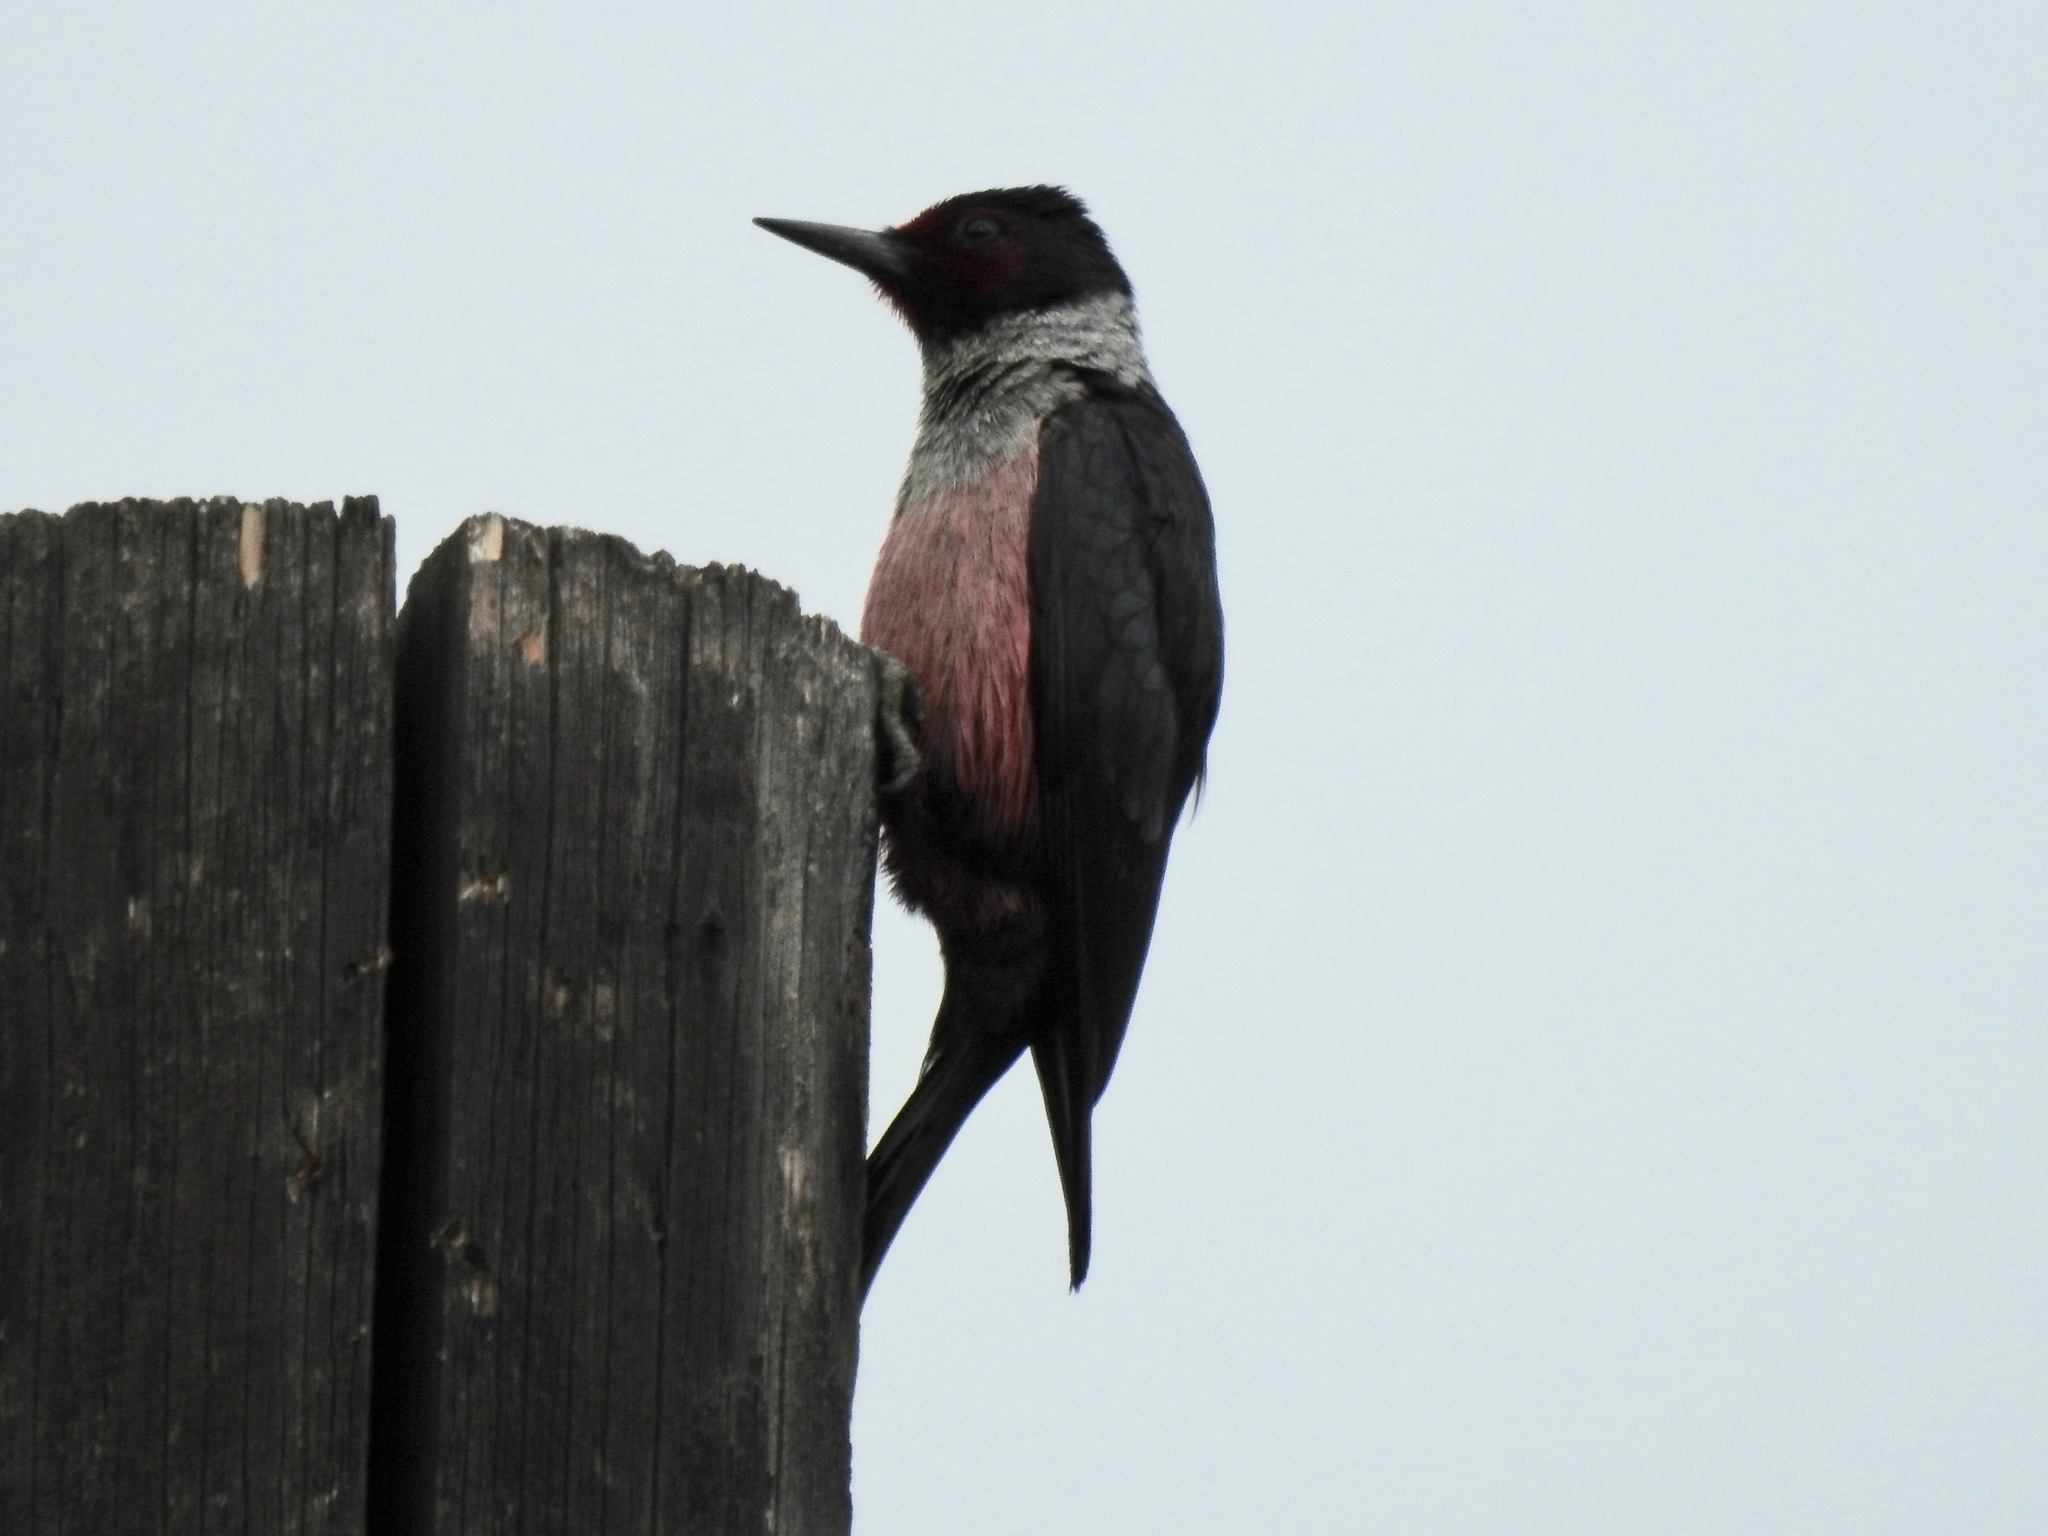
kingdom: Animalia
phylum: Chordata
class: Aves
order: Piciformes
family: Picidae
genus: Melanerpes
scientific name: Melanerpes lewis
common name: Lewis's woodpecker
